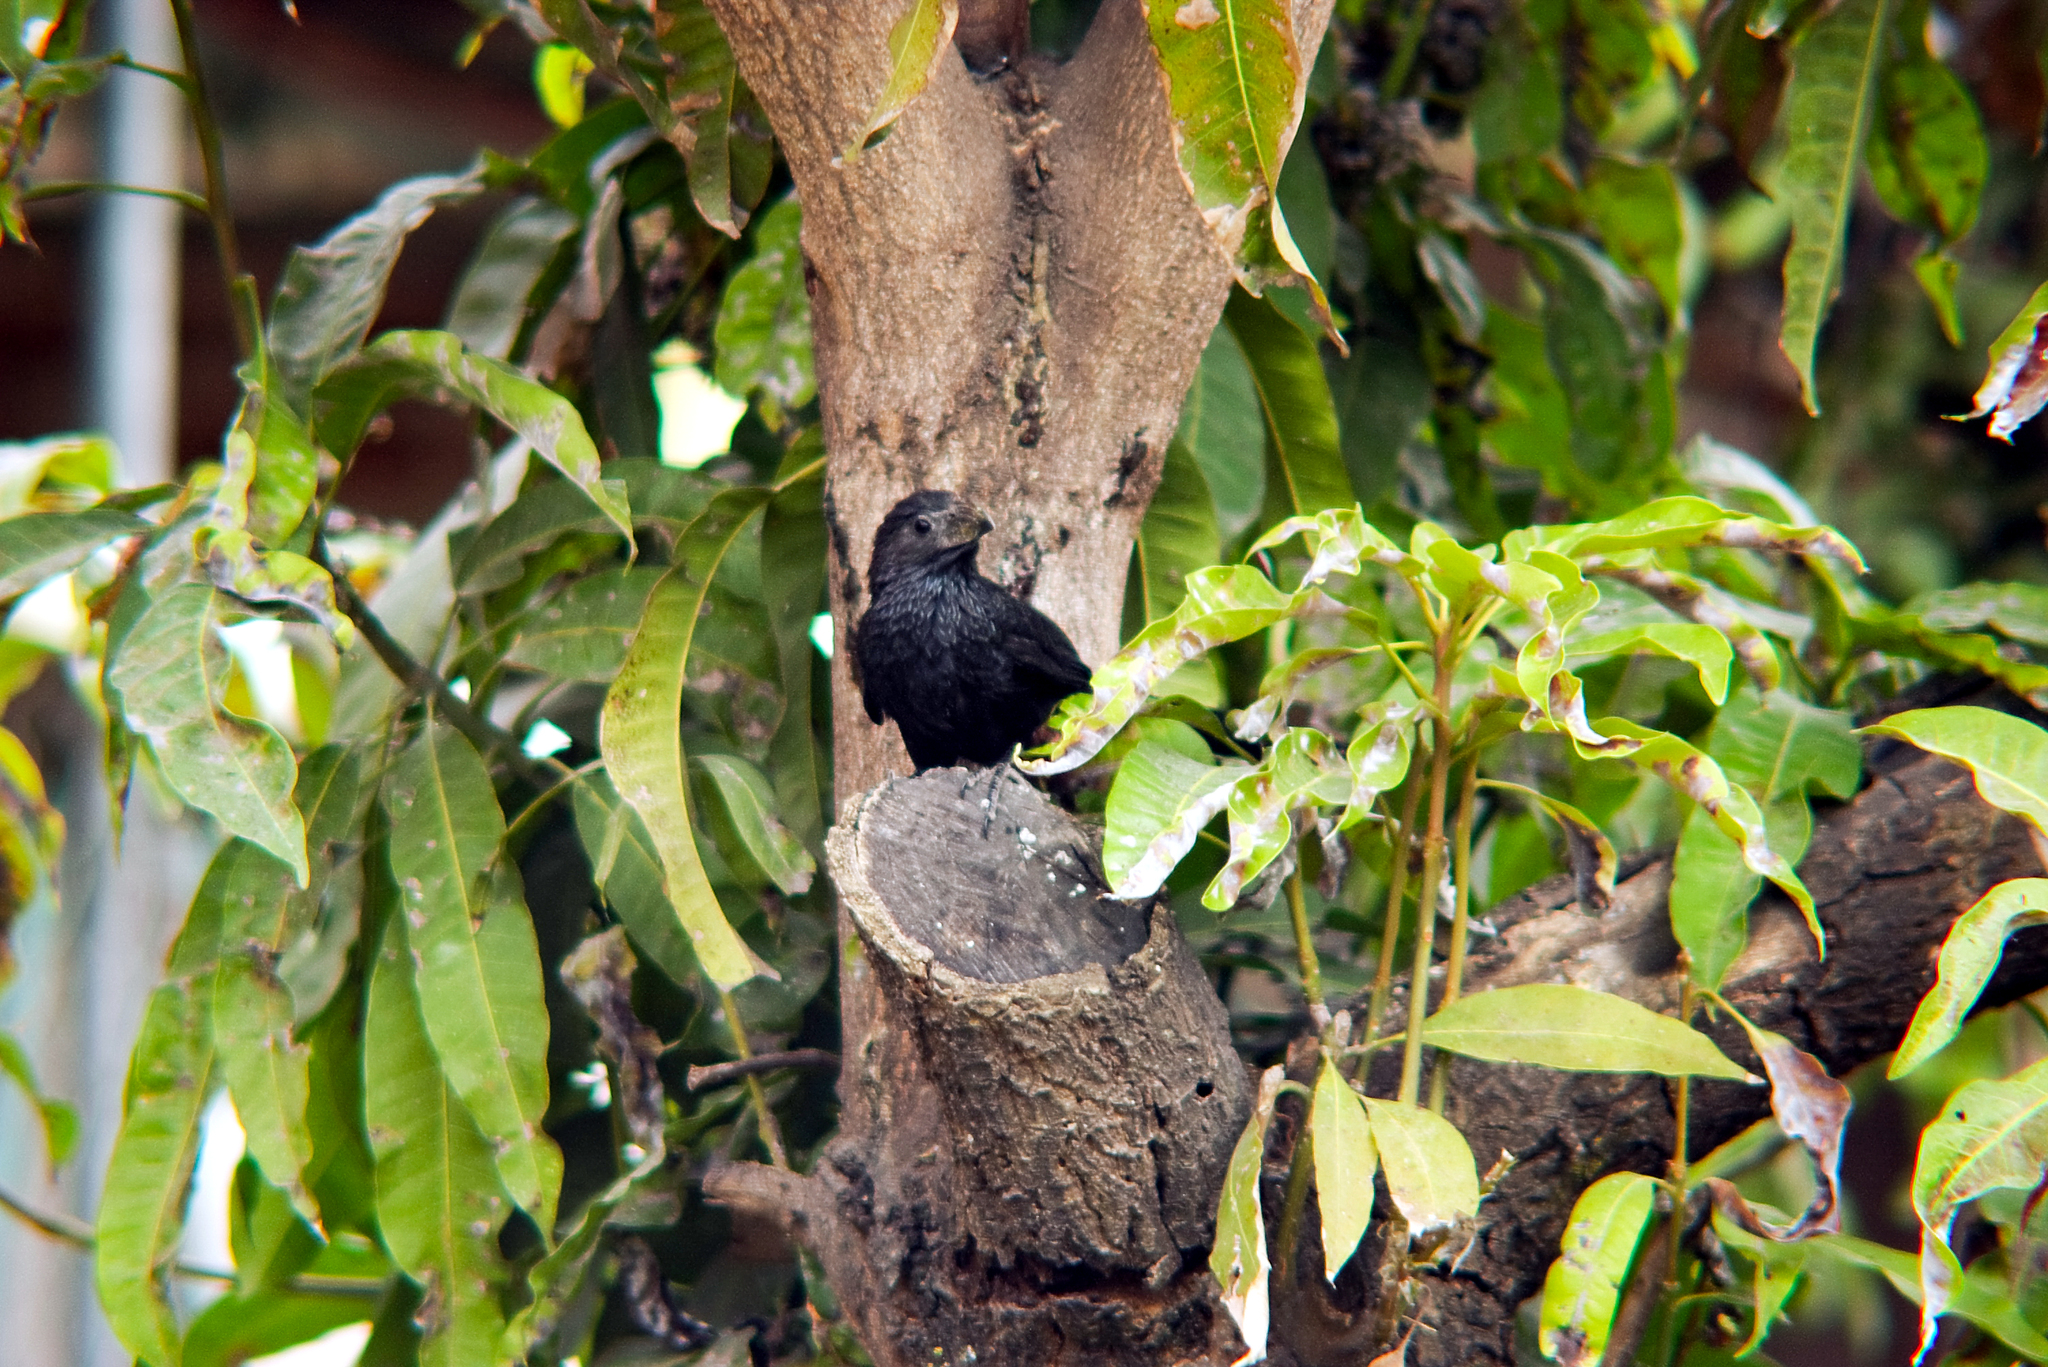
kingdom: Animalia
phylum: Chordata
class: Aves
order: Cuculiformes
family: Cuculidae
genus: Crotophaga
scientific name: Crotophaga sulcirostris
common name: Groove-billed ani
